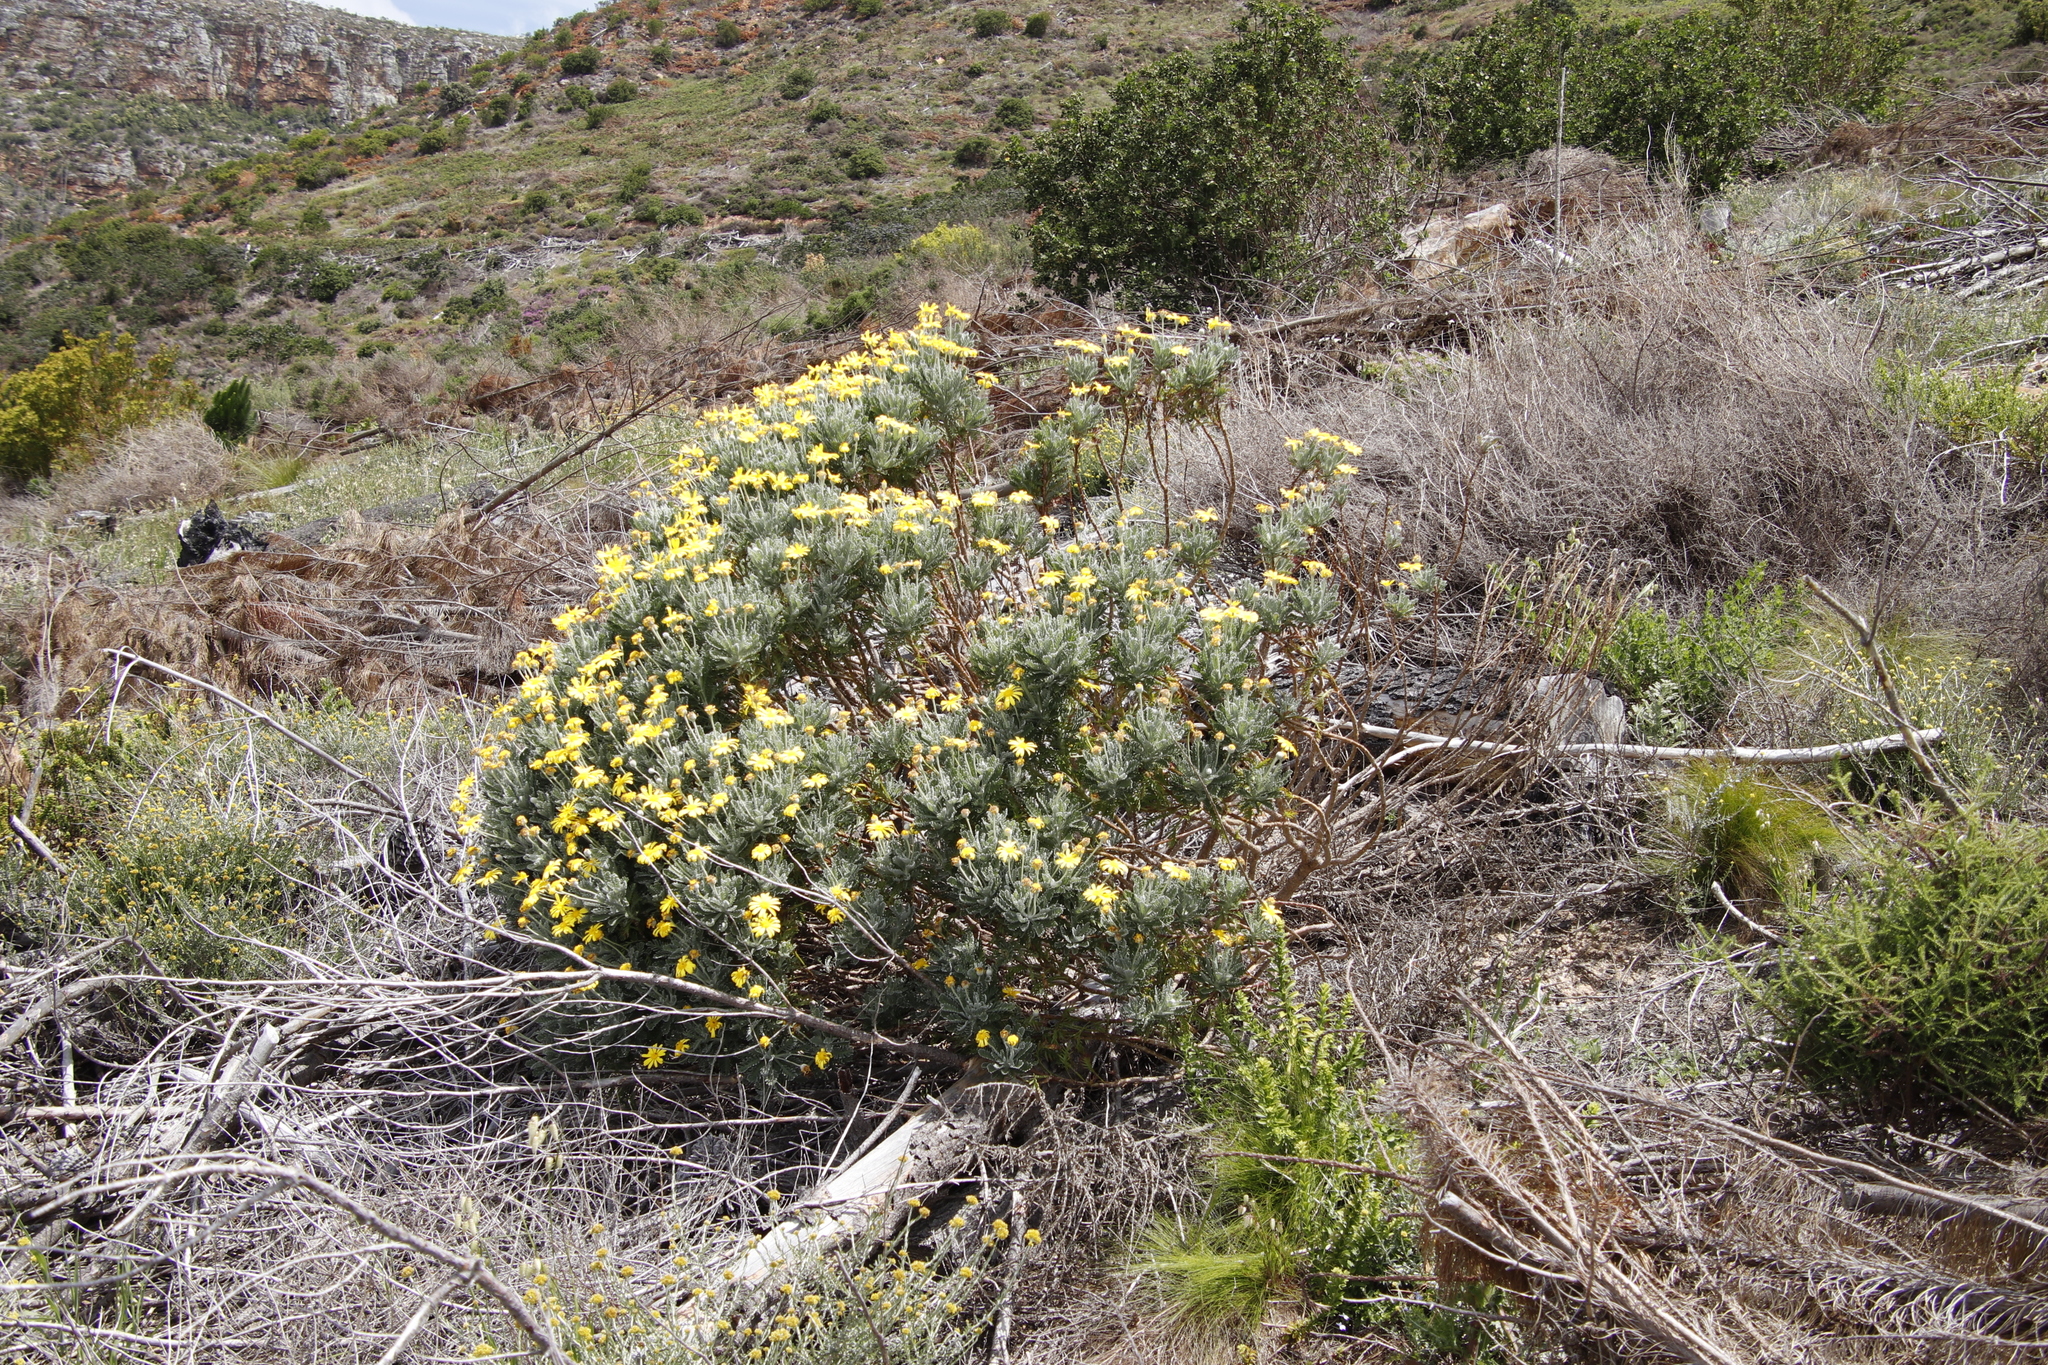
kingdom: Plantae
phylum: Tracheophyta
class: Magnoliopsida
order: Asterales
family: Asteraceae
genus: Euryops
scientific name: Euryops pectinatus
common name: Gray-leaf euryops
